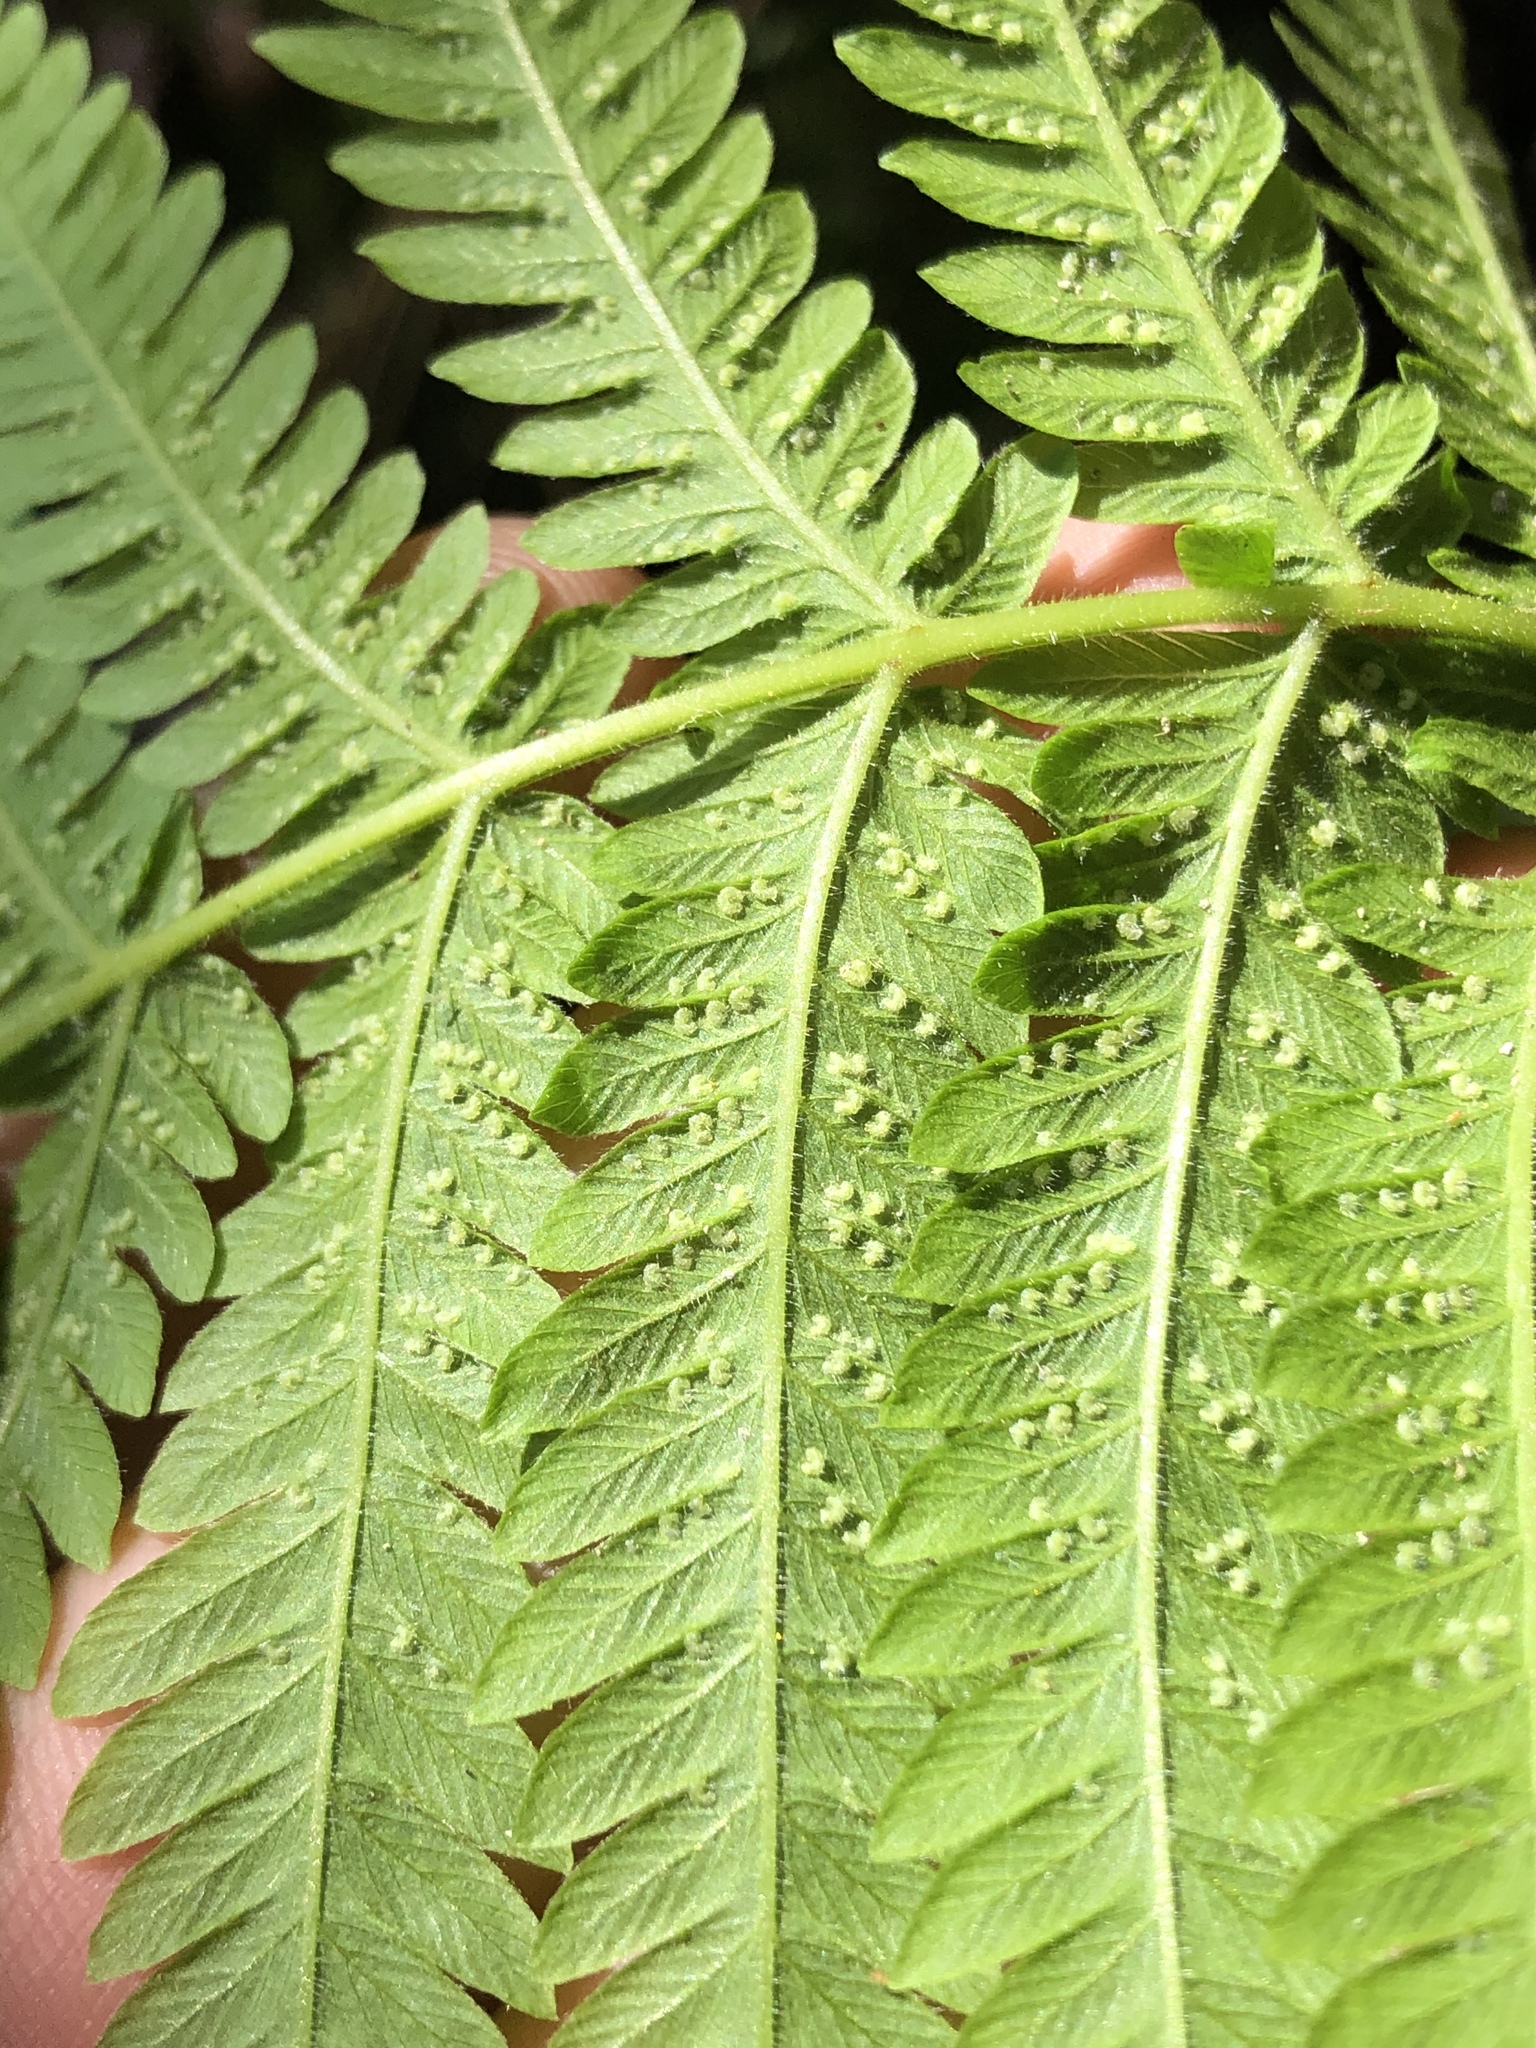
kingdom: Plantae
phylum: Tracheophyta
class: Polypodiopsida
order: Polypodiales
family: Thelypteridaceae
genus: Pelazoneuron
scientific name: Pelazoneuron ovatum
